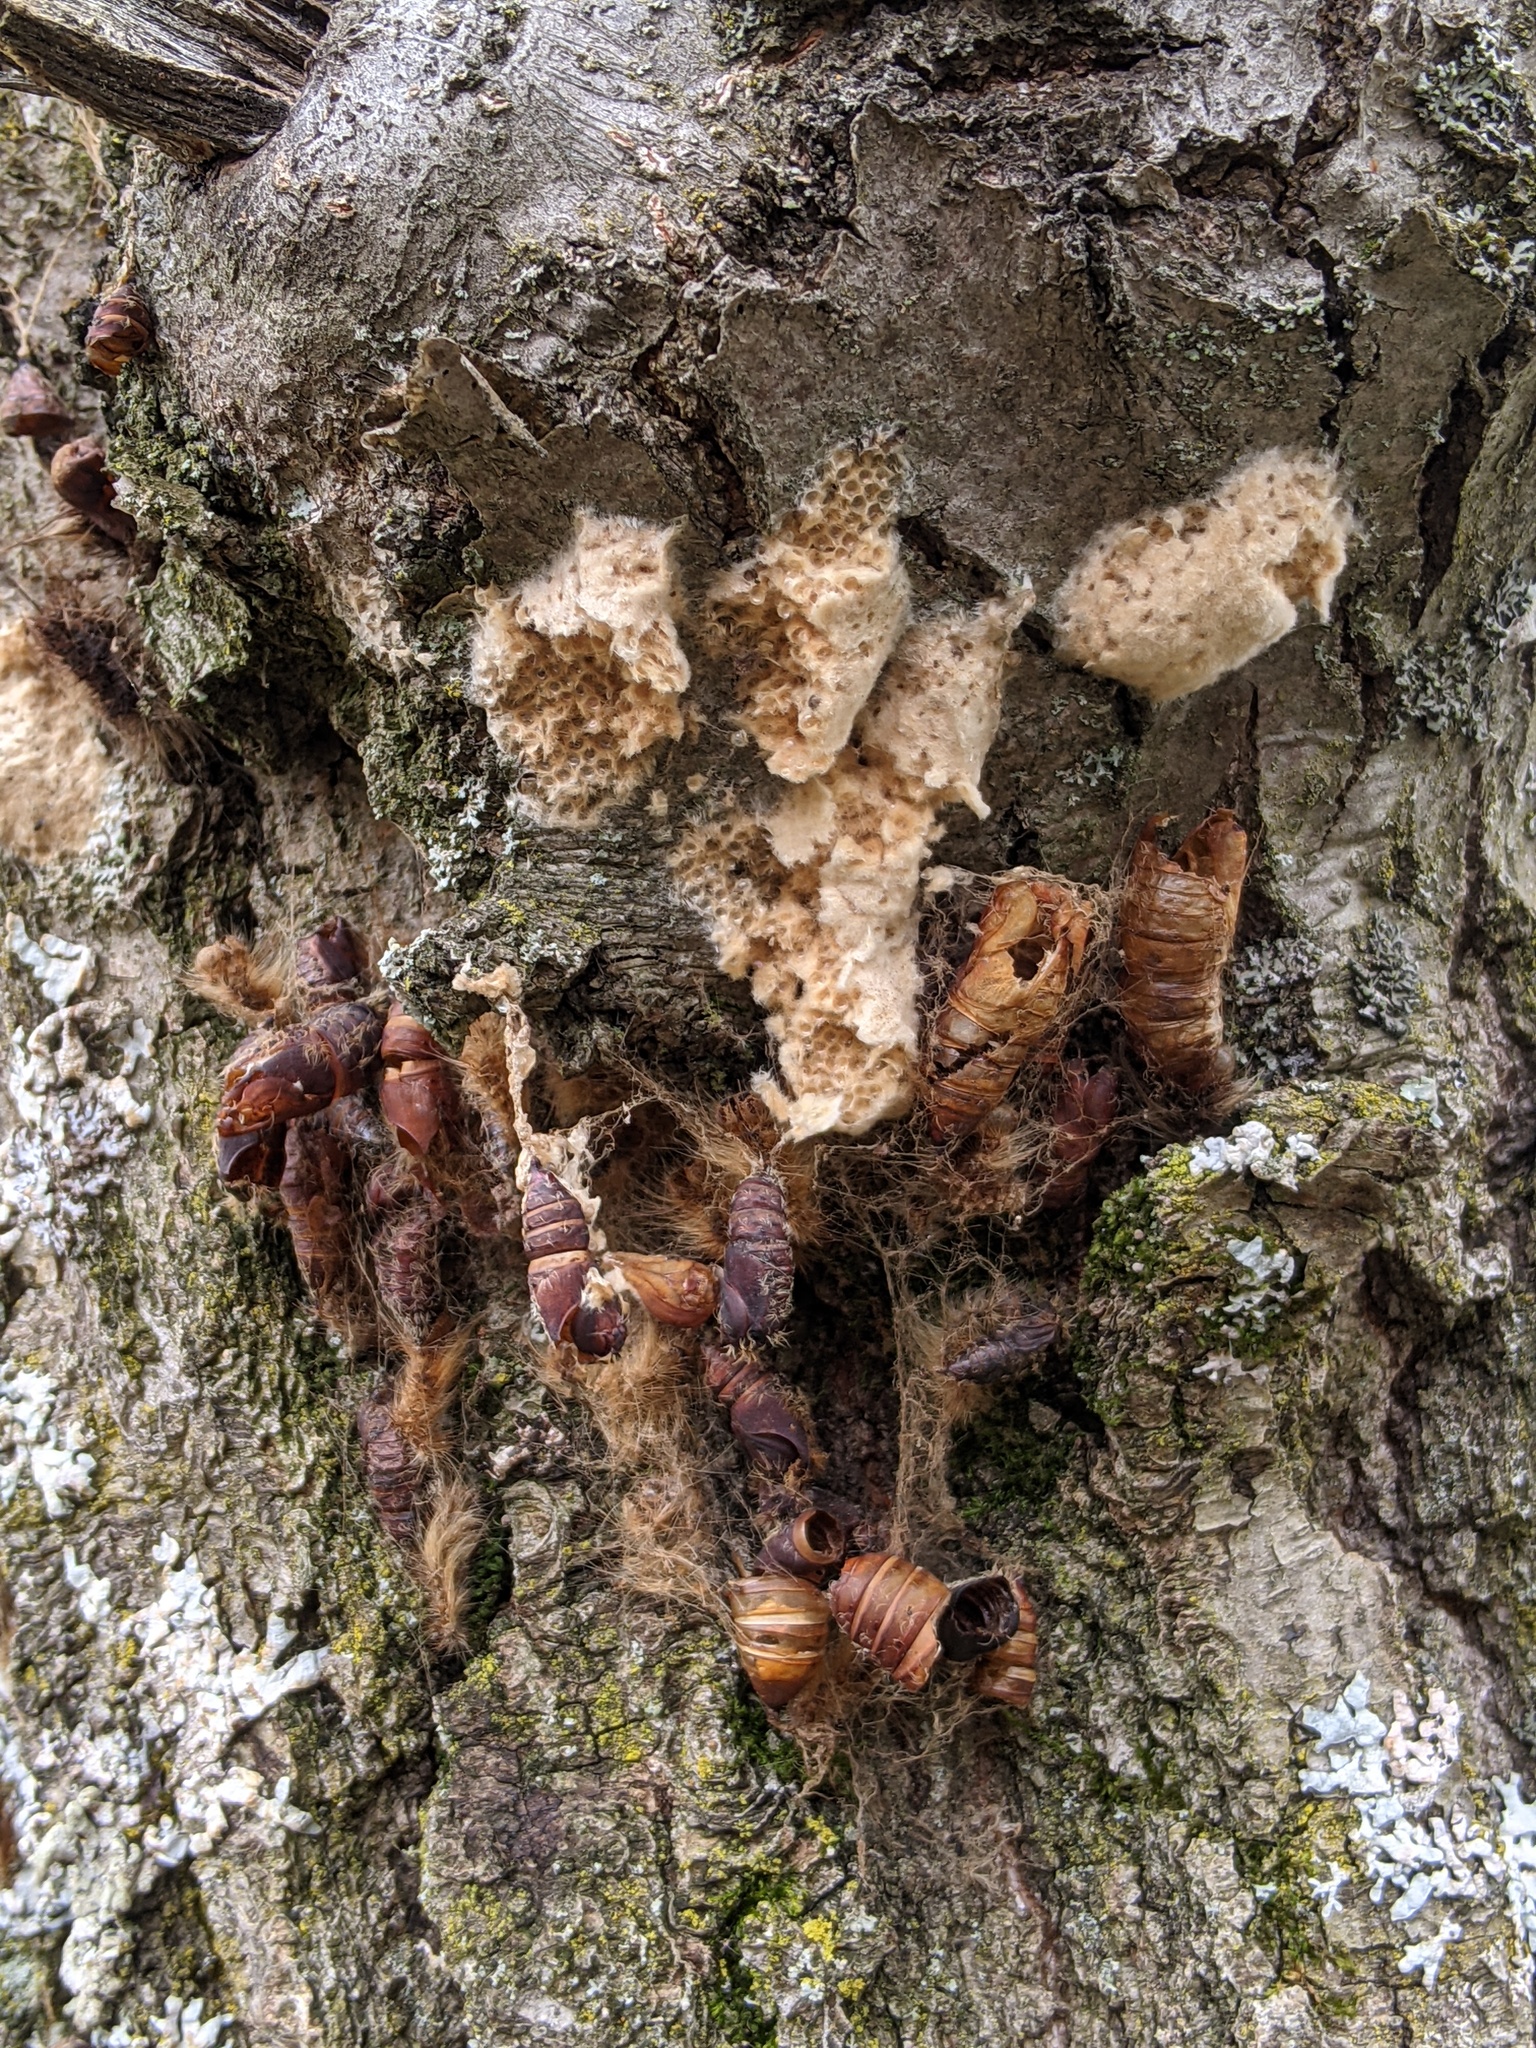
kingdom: Animalia
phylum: Arthropoda
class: Insecta
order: Lepidoptera
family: Erebidae
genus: Lymantria
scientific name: Lymantria dispar
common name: Gypsy moth
